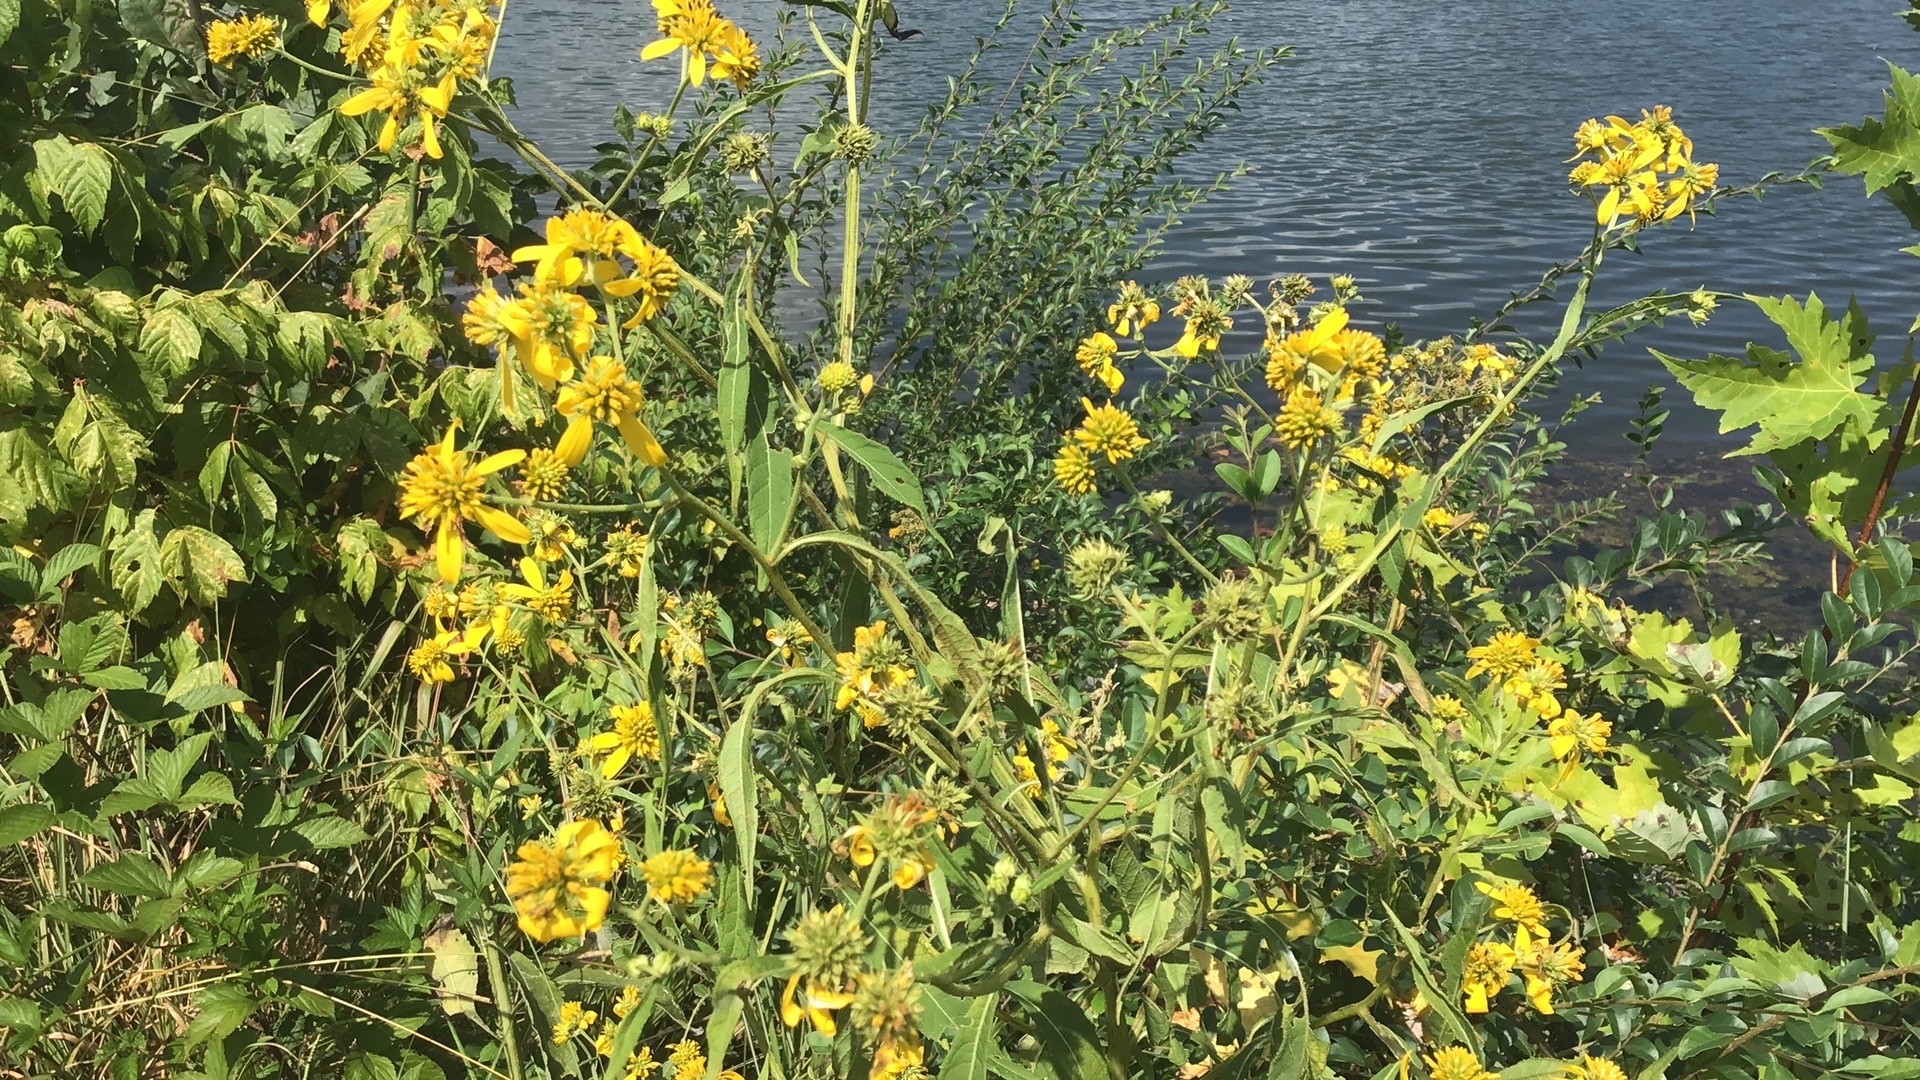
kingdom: Plantae
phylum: Tracheophyta
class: Magnoliopsida
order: Asterales
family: Asteraceae
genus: Verbesina
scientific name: Verbesina alternifolia
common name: Wingstem
